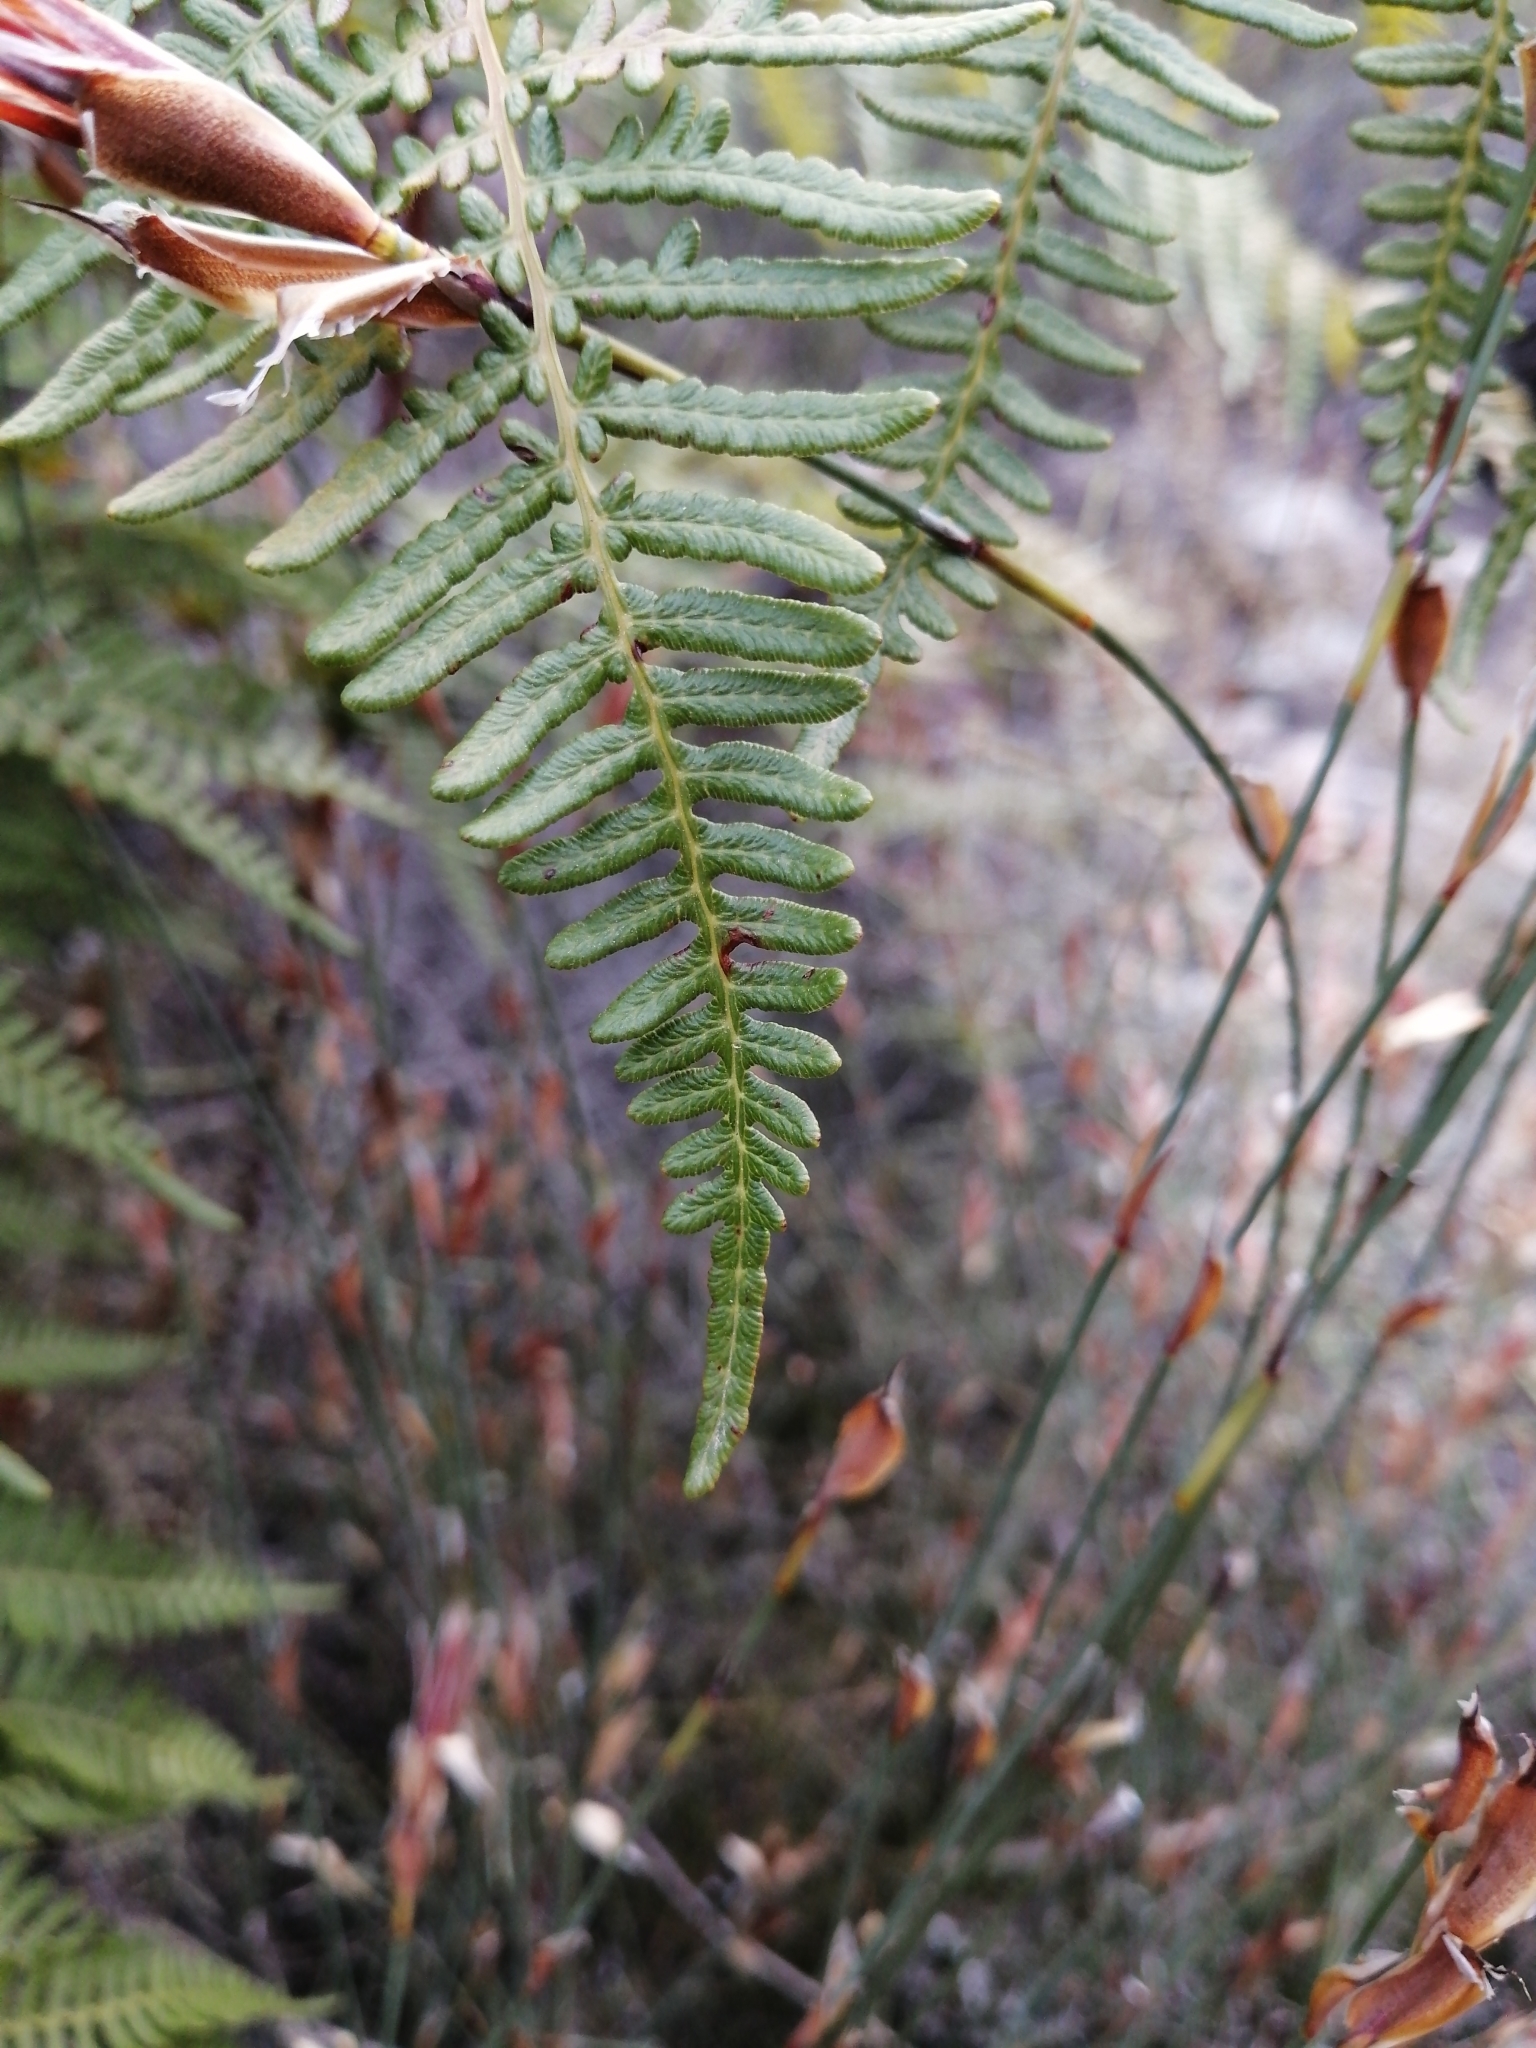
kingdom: Plantae
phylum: Tracheophyta
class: Polypodiopsida
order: Polypodiales
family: Dennstaedtiaceae
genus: Pteridium
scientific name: Pteridium aquilinum
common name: Bracken
